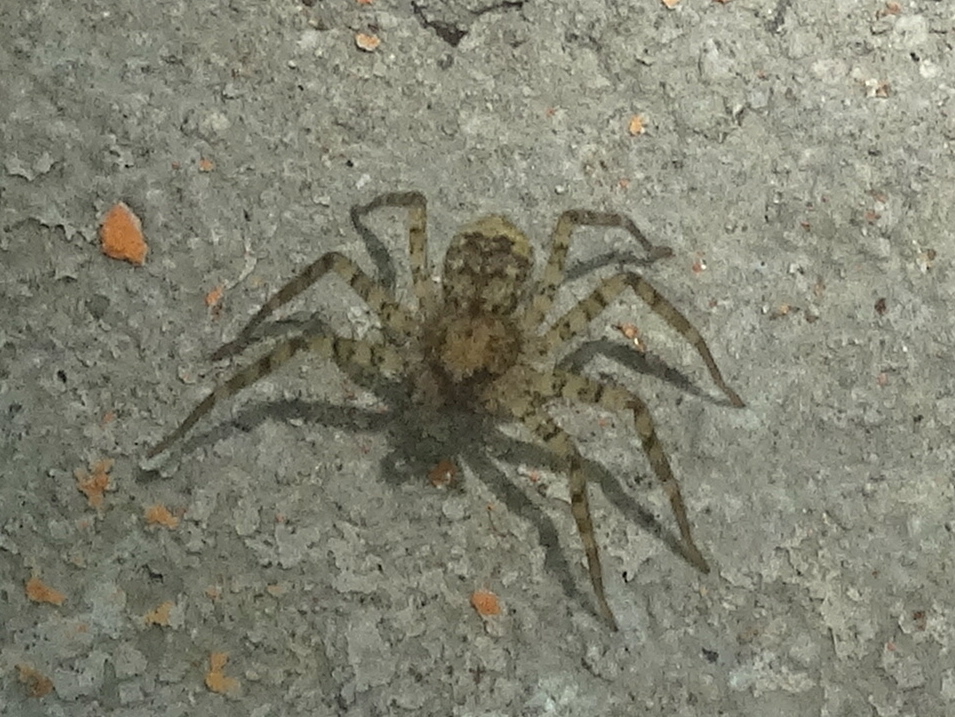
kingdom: Animalia
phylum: Arthropoda
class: Arachnida
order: Araneae
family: Selenopidae
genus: Selenops
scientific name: Selenops
